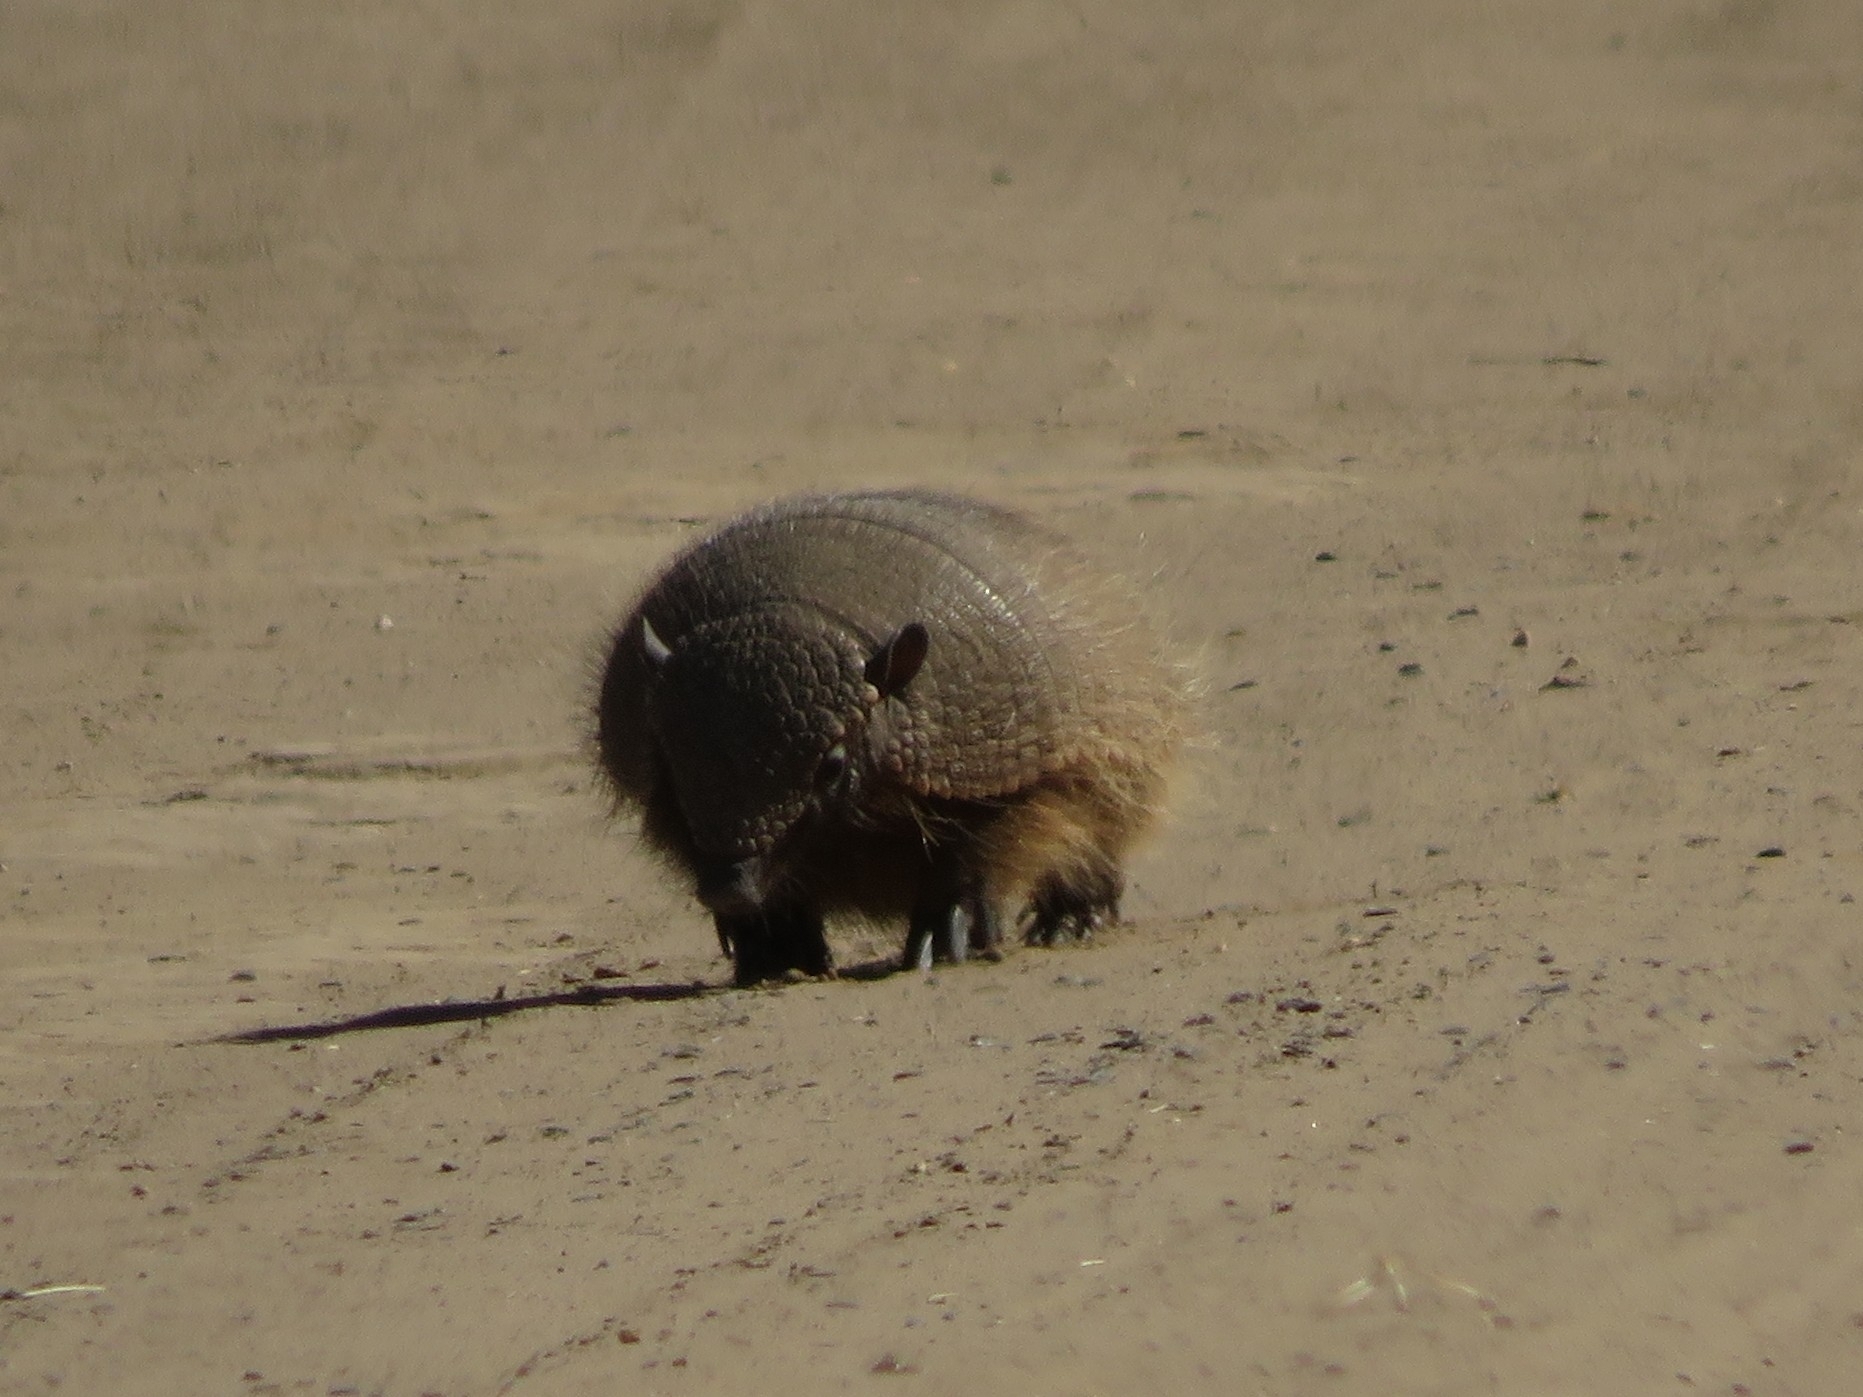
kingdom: Animalia
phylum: Chordata
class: Mammalia
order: Cingulata
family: Dasypodidae
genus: Chaetophractus
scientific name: Chaetophractus villosus
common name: Big hairy armadillo
